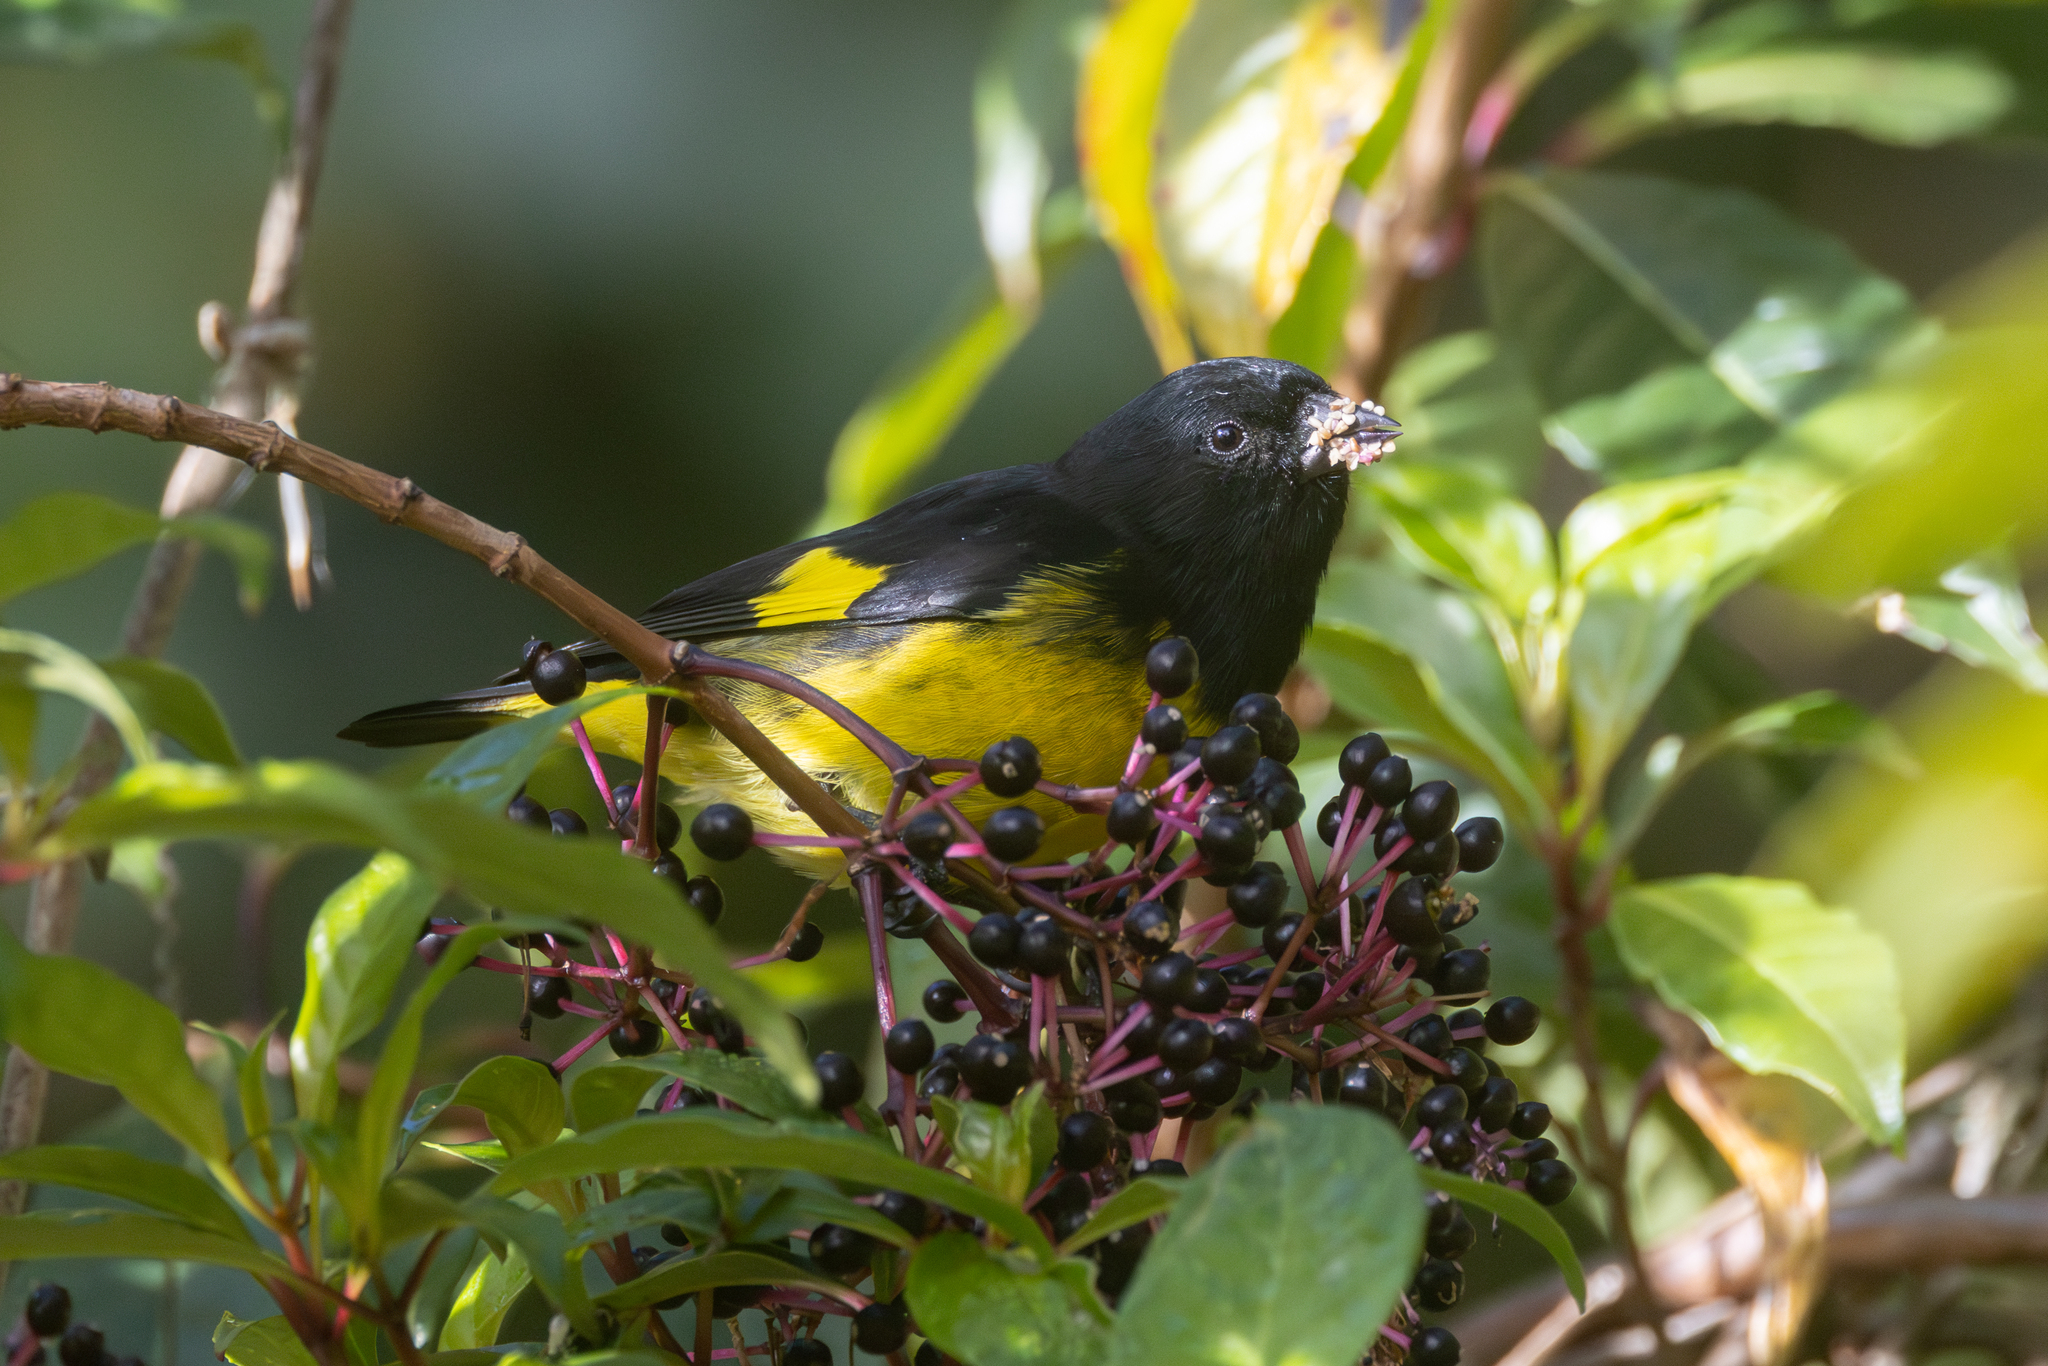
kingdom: Animalia
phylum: Chordata
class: Aves
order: Passeriformes
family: Fringillidae
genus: Spinus
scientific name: Spinus xanthogastrus
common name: Yellow-bellied siskin
